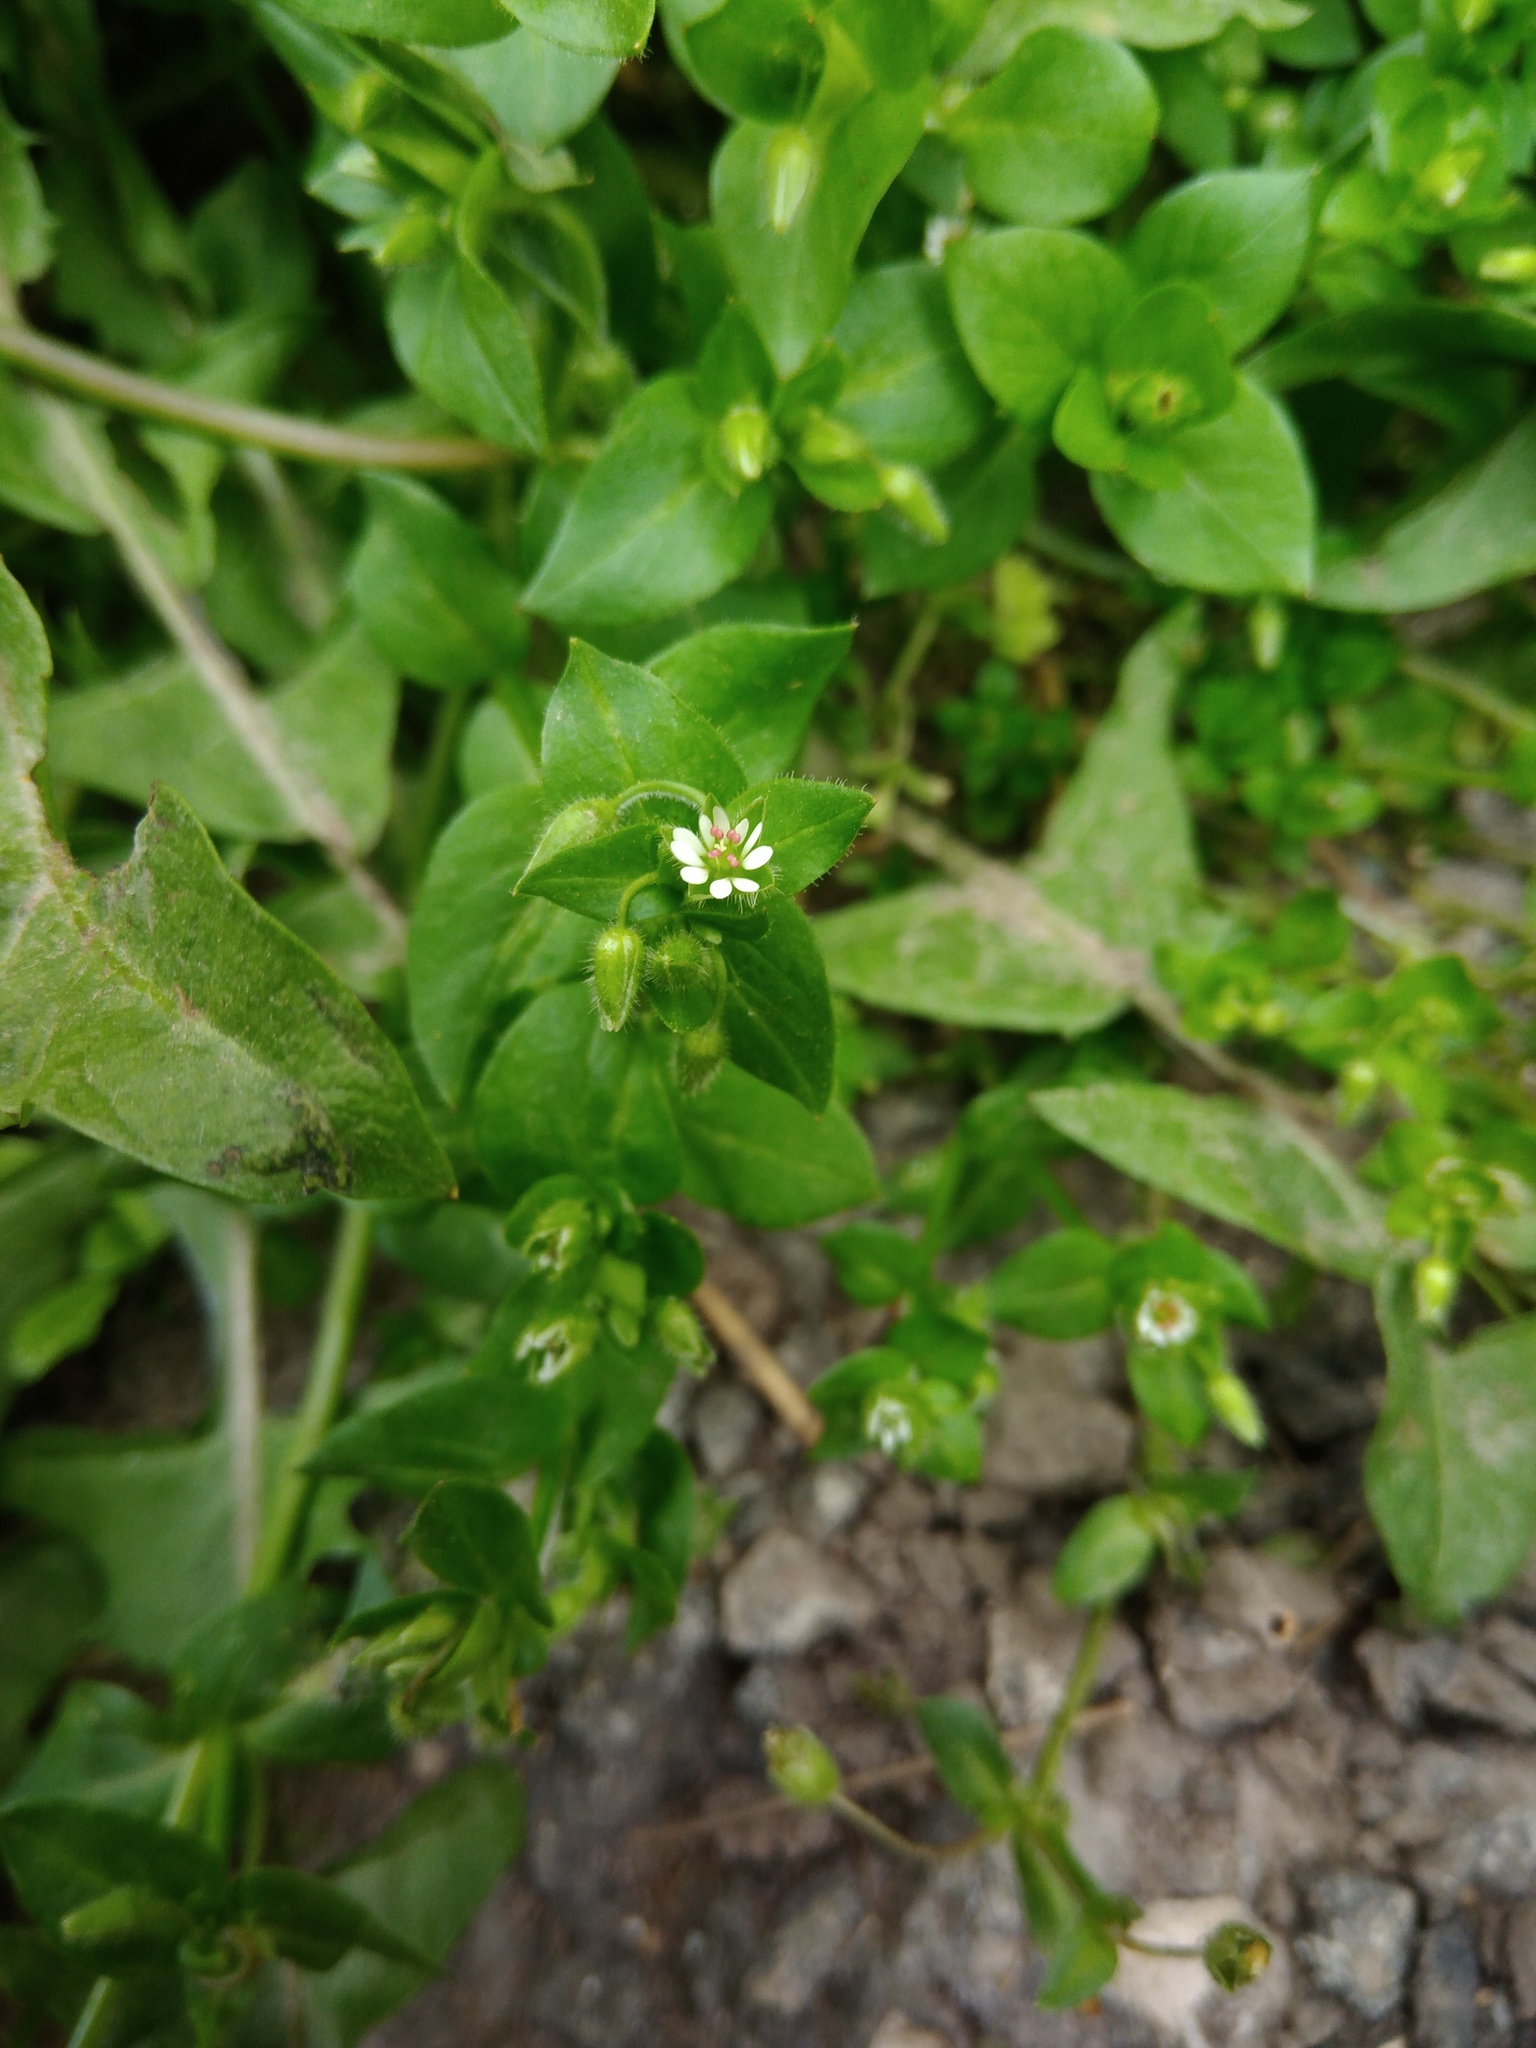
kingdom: Plantae
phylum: Tracheophyta
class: Magnoliopsida
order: Caryophyllales
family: Caryophyllaceae
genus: Stellaria
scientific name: Stellaria media
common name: Common chickweed
